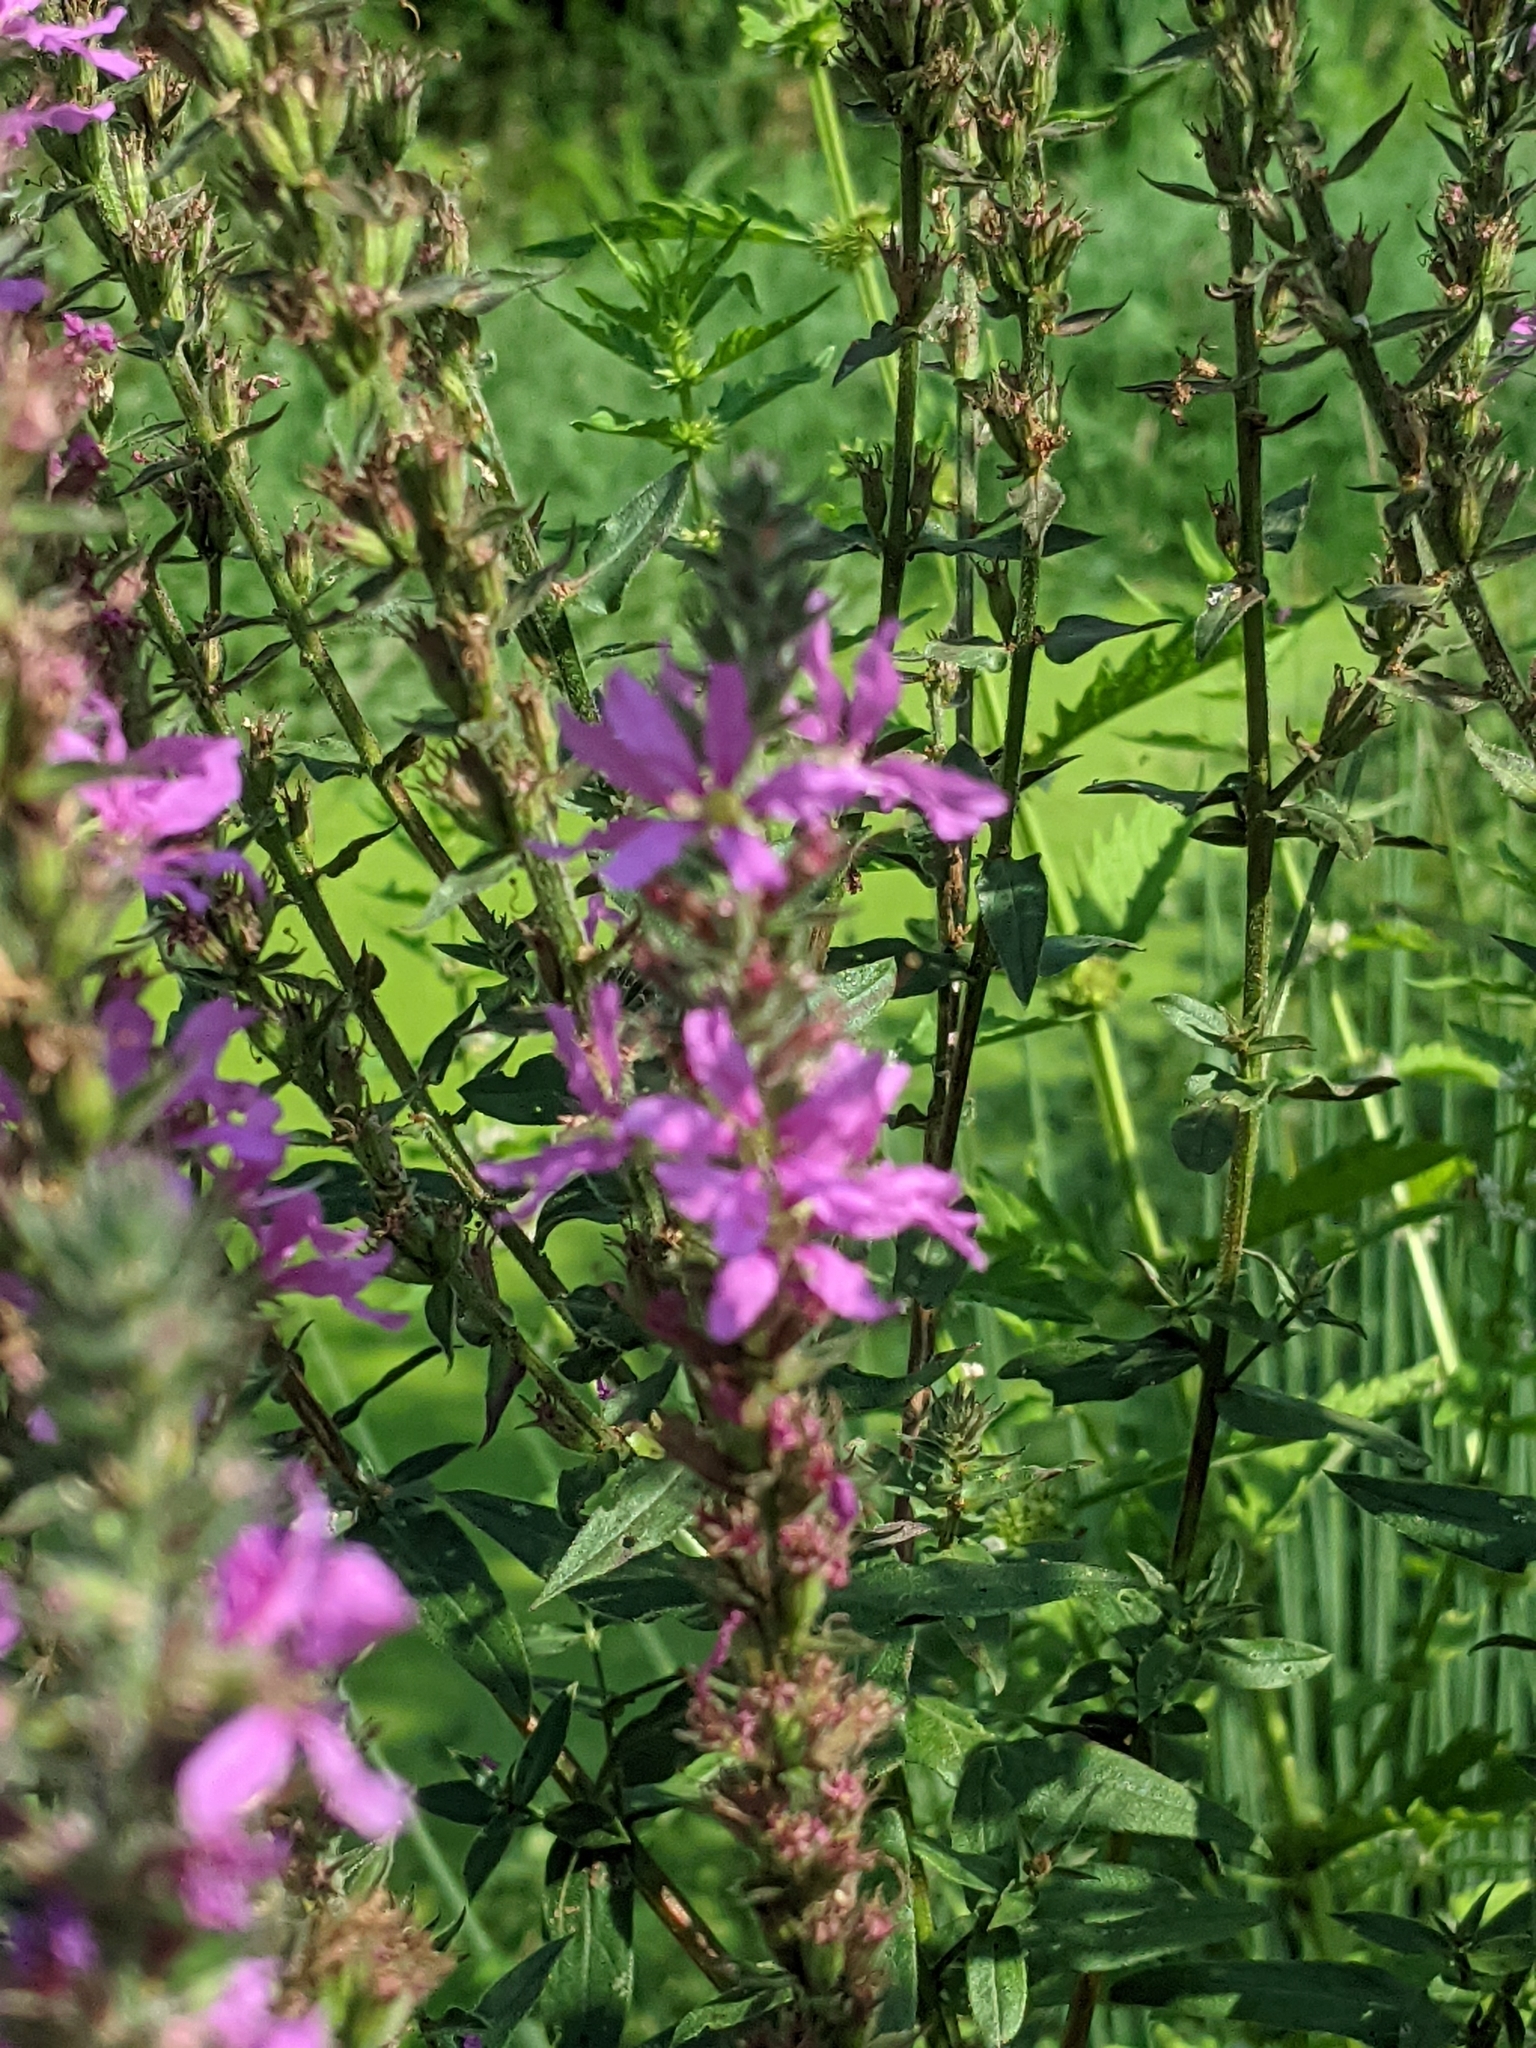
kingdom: Plantae
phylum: Tracheophyta
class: Magnoliopsida
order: Myrtales
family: Lythraceae
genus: Lythrum
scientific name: Lythrum salicaria
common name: Purple loosestrife
